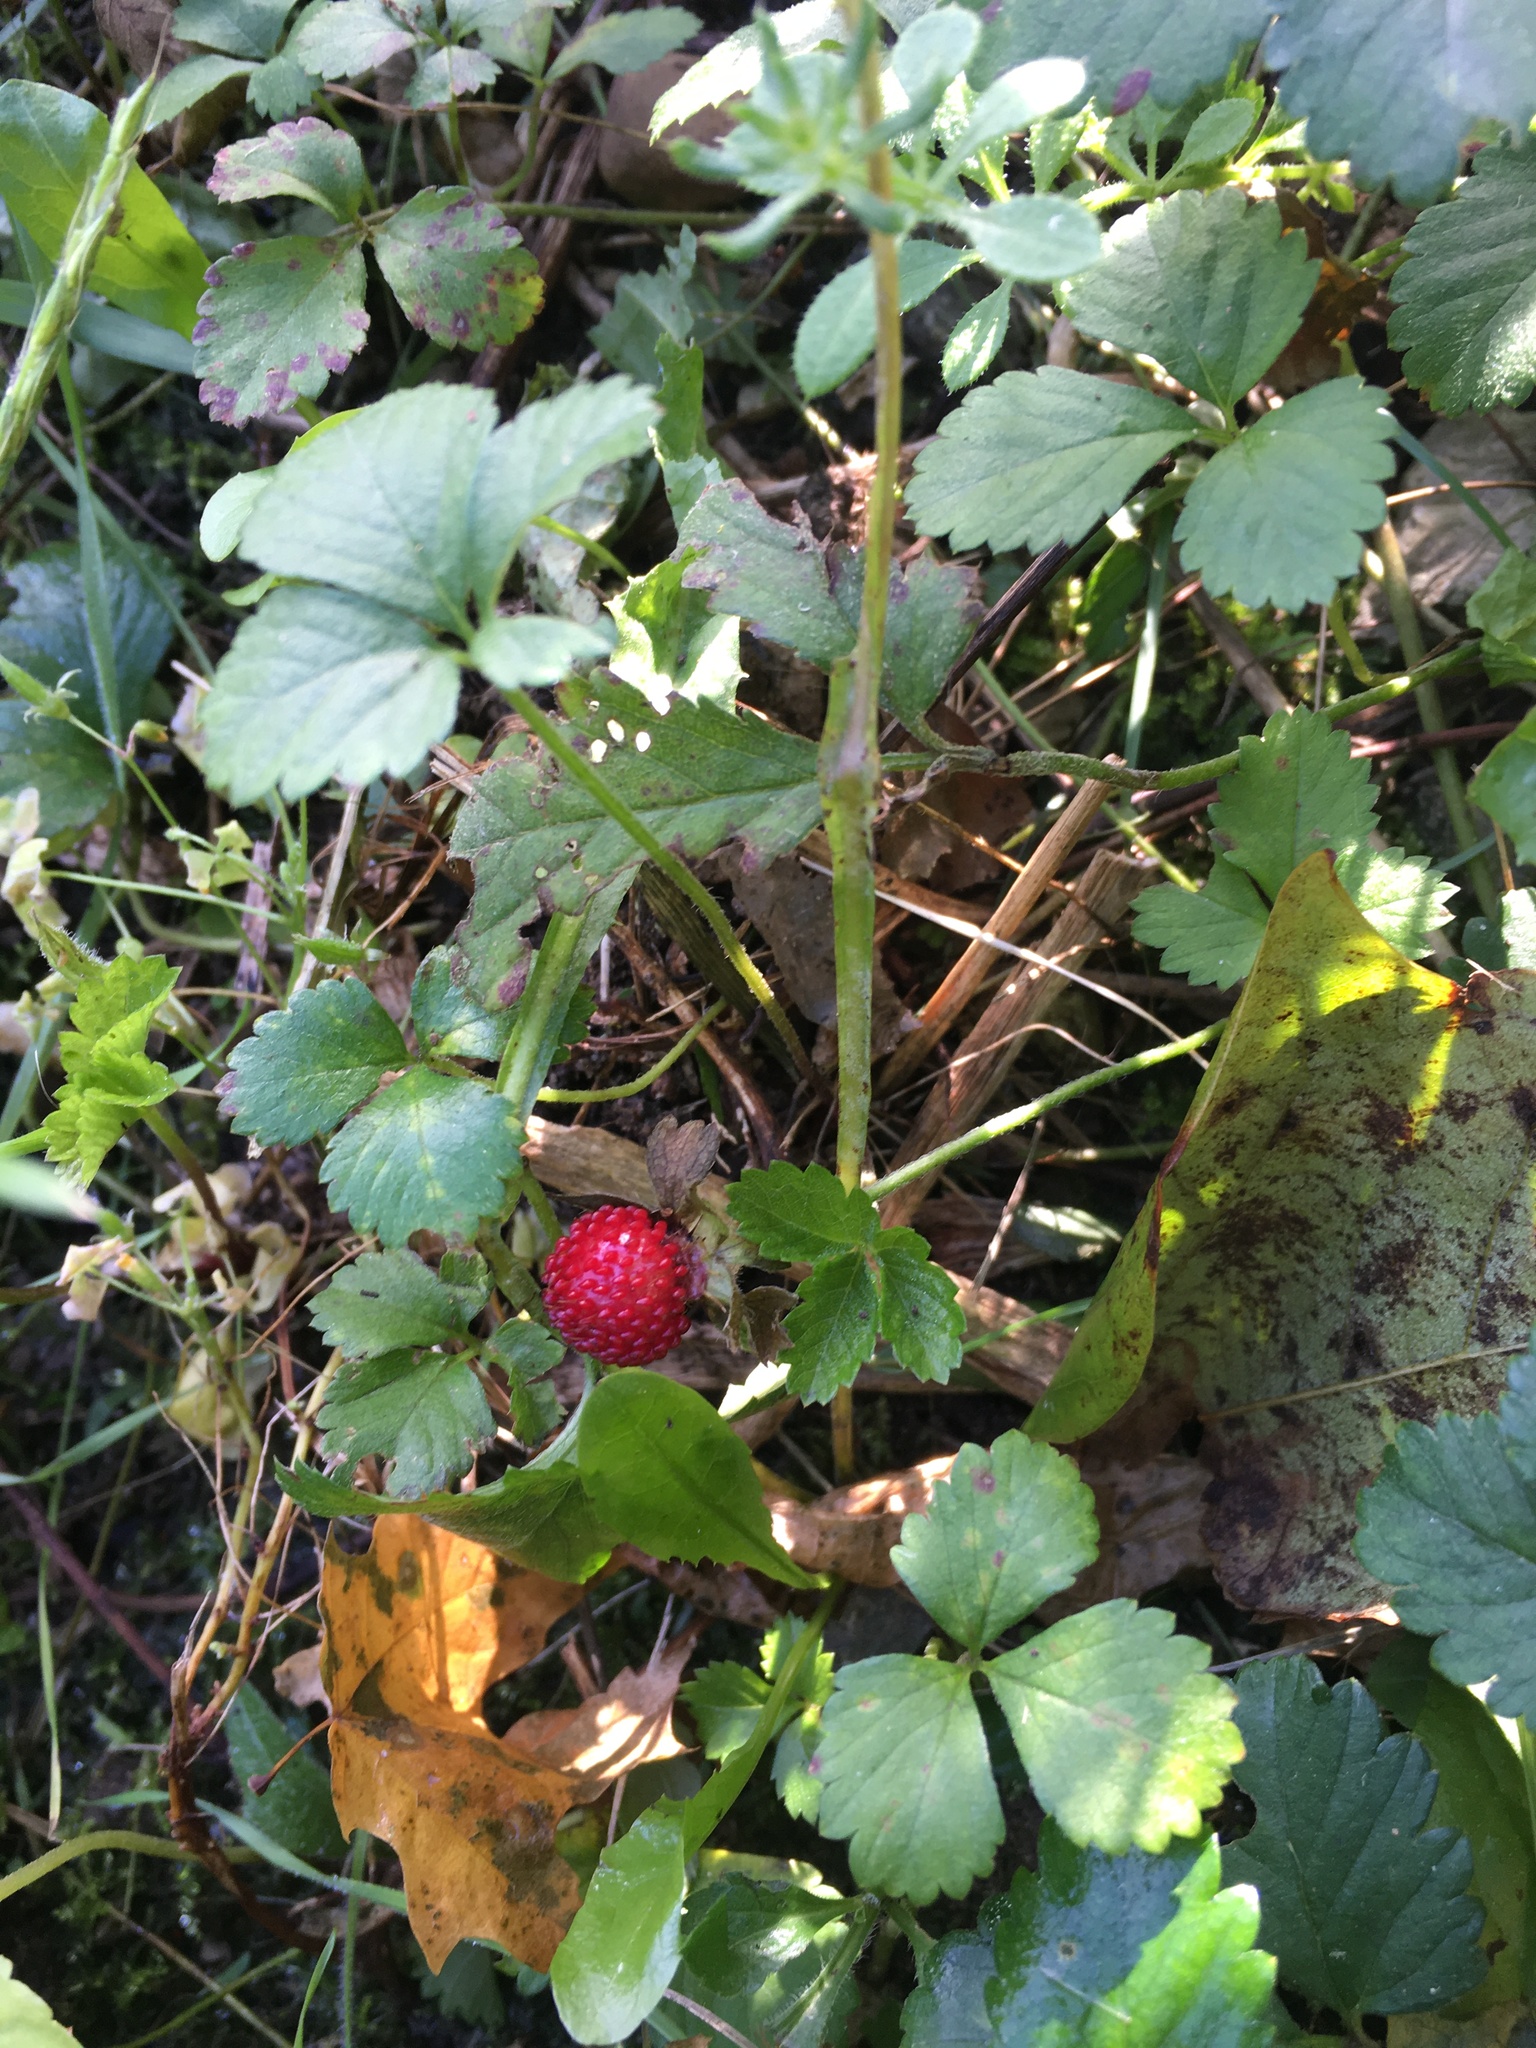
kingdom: Plantae
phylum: Tracheophyta
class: Magnoliopsida
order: Rosales
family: Rosaceae
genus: Potentilla
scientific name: Potentilla indica
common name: Yellow-flowered strawberry
